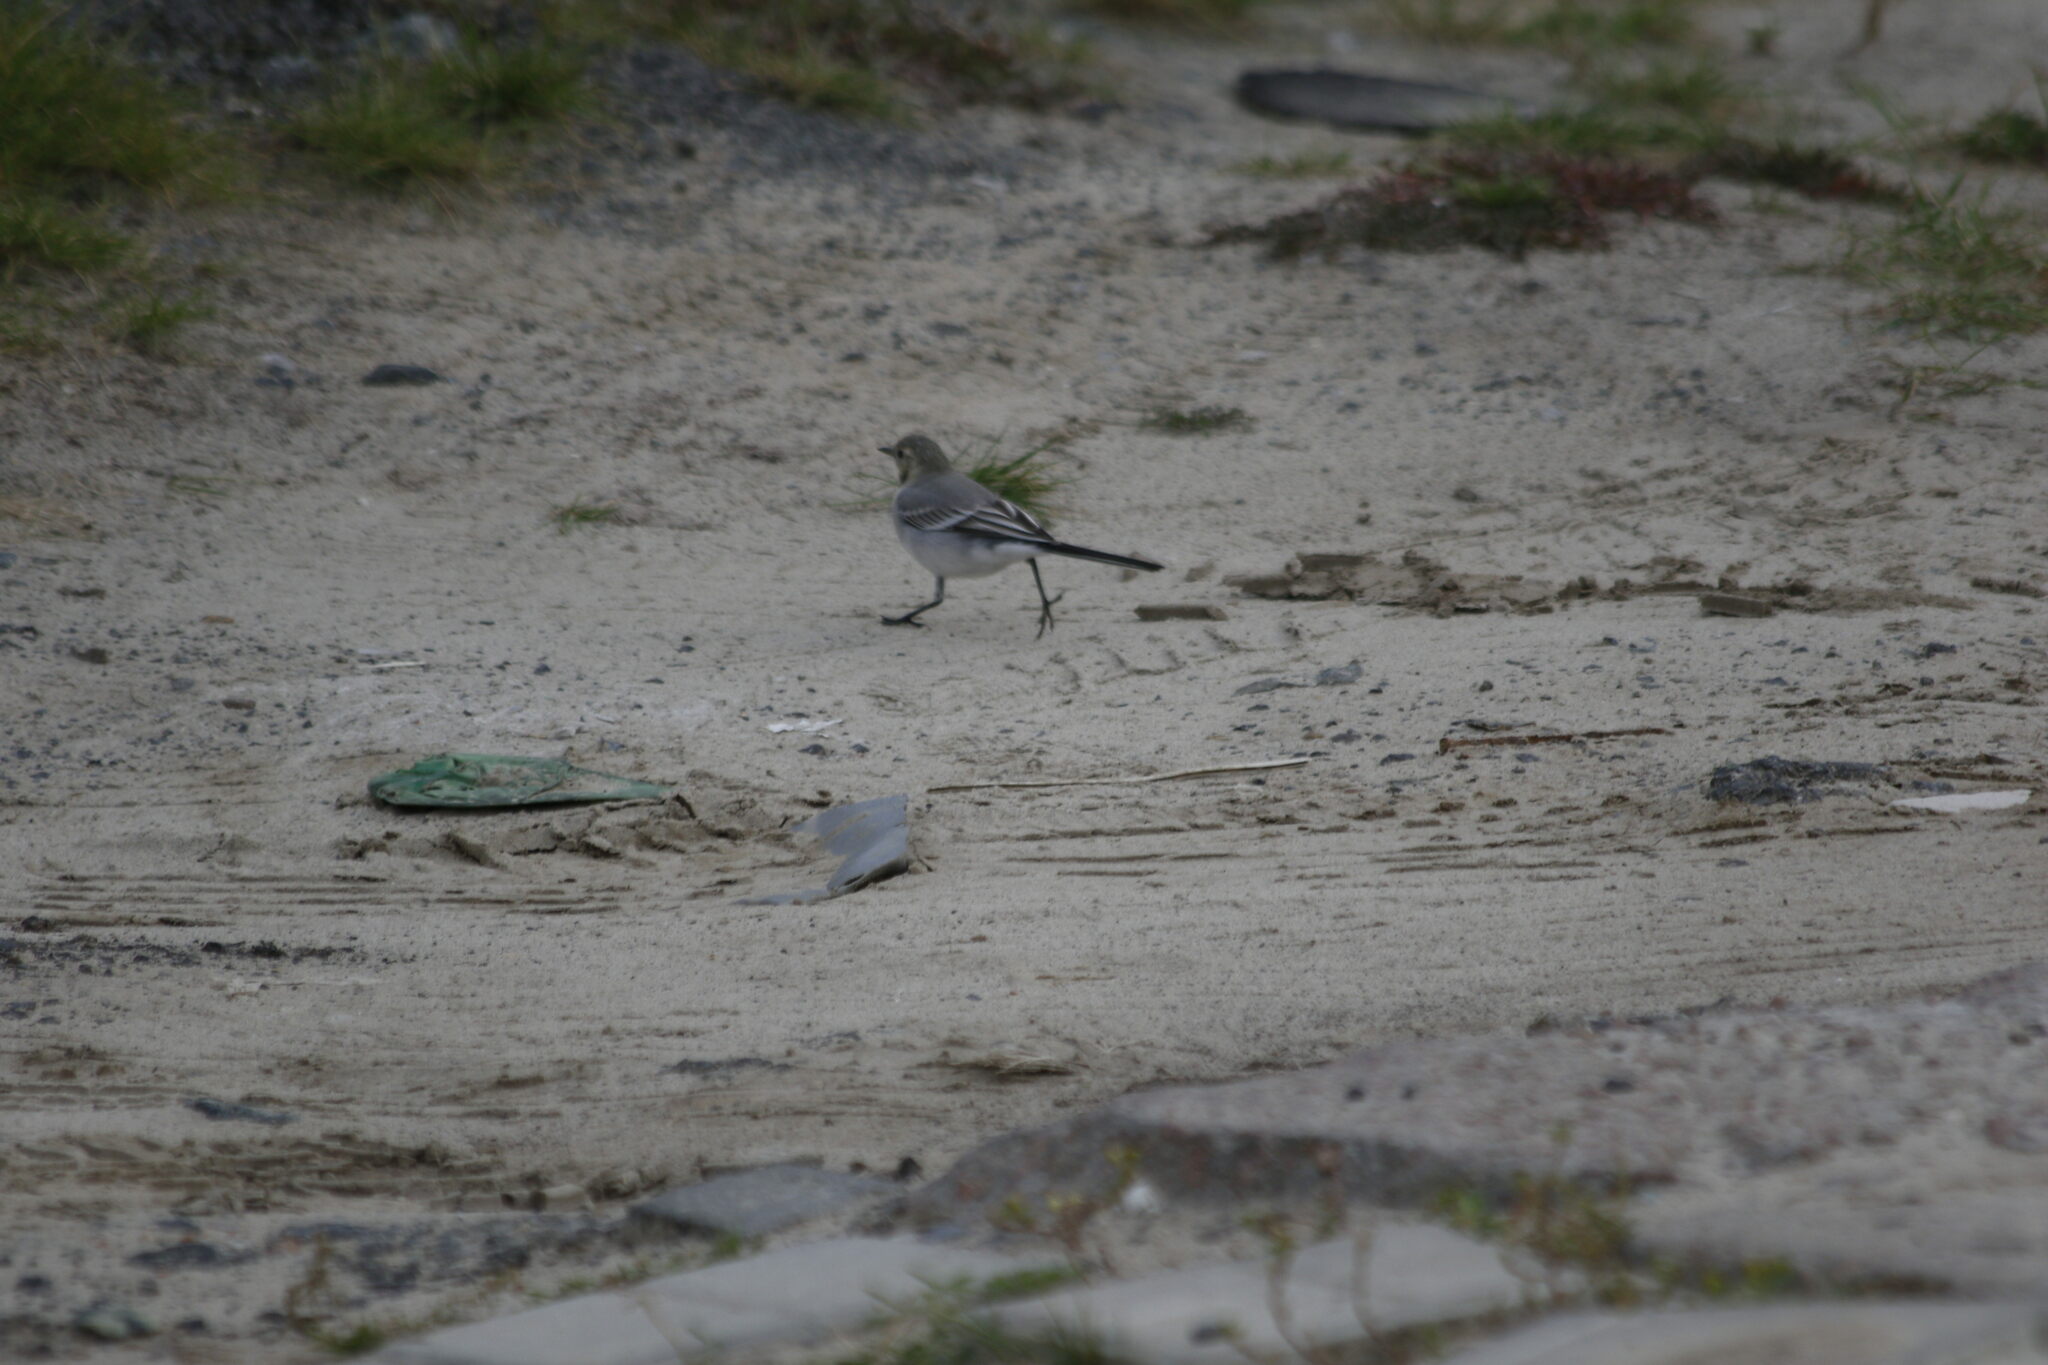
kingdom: Animalia
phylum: Chordata
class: Aves
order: Passeriformes
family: Motacillidae
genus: Motacilla
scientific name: Motacilla alba
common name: White wagtail
